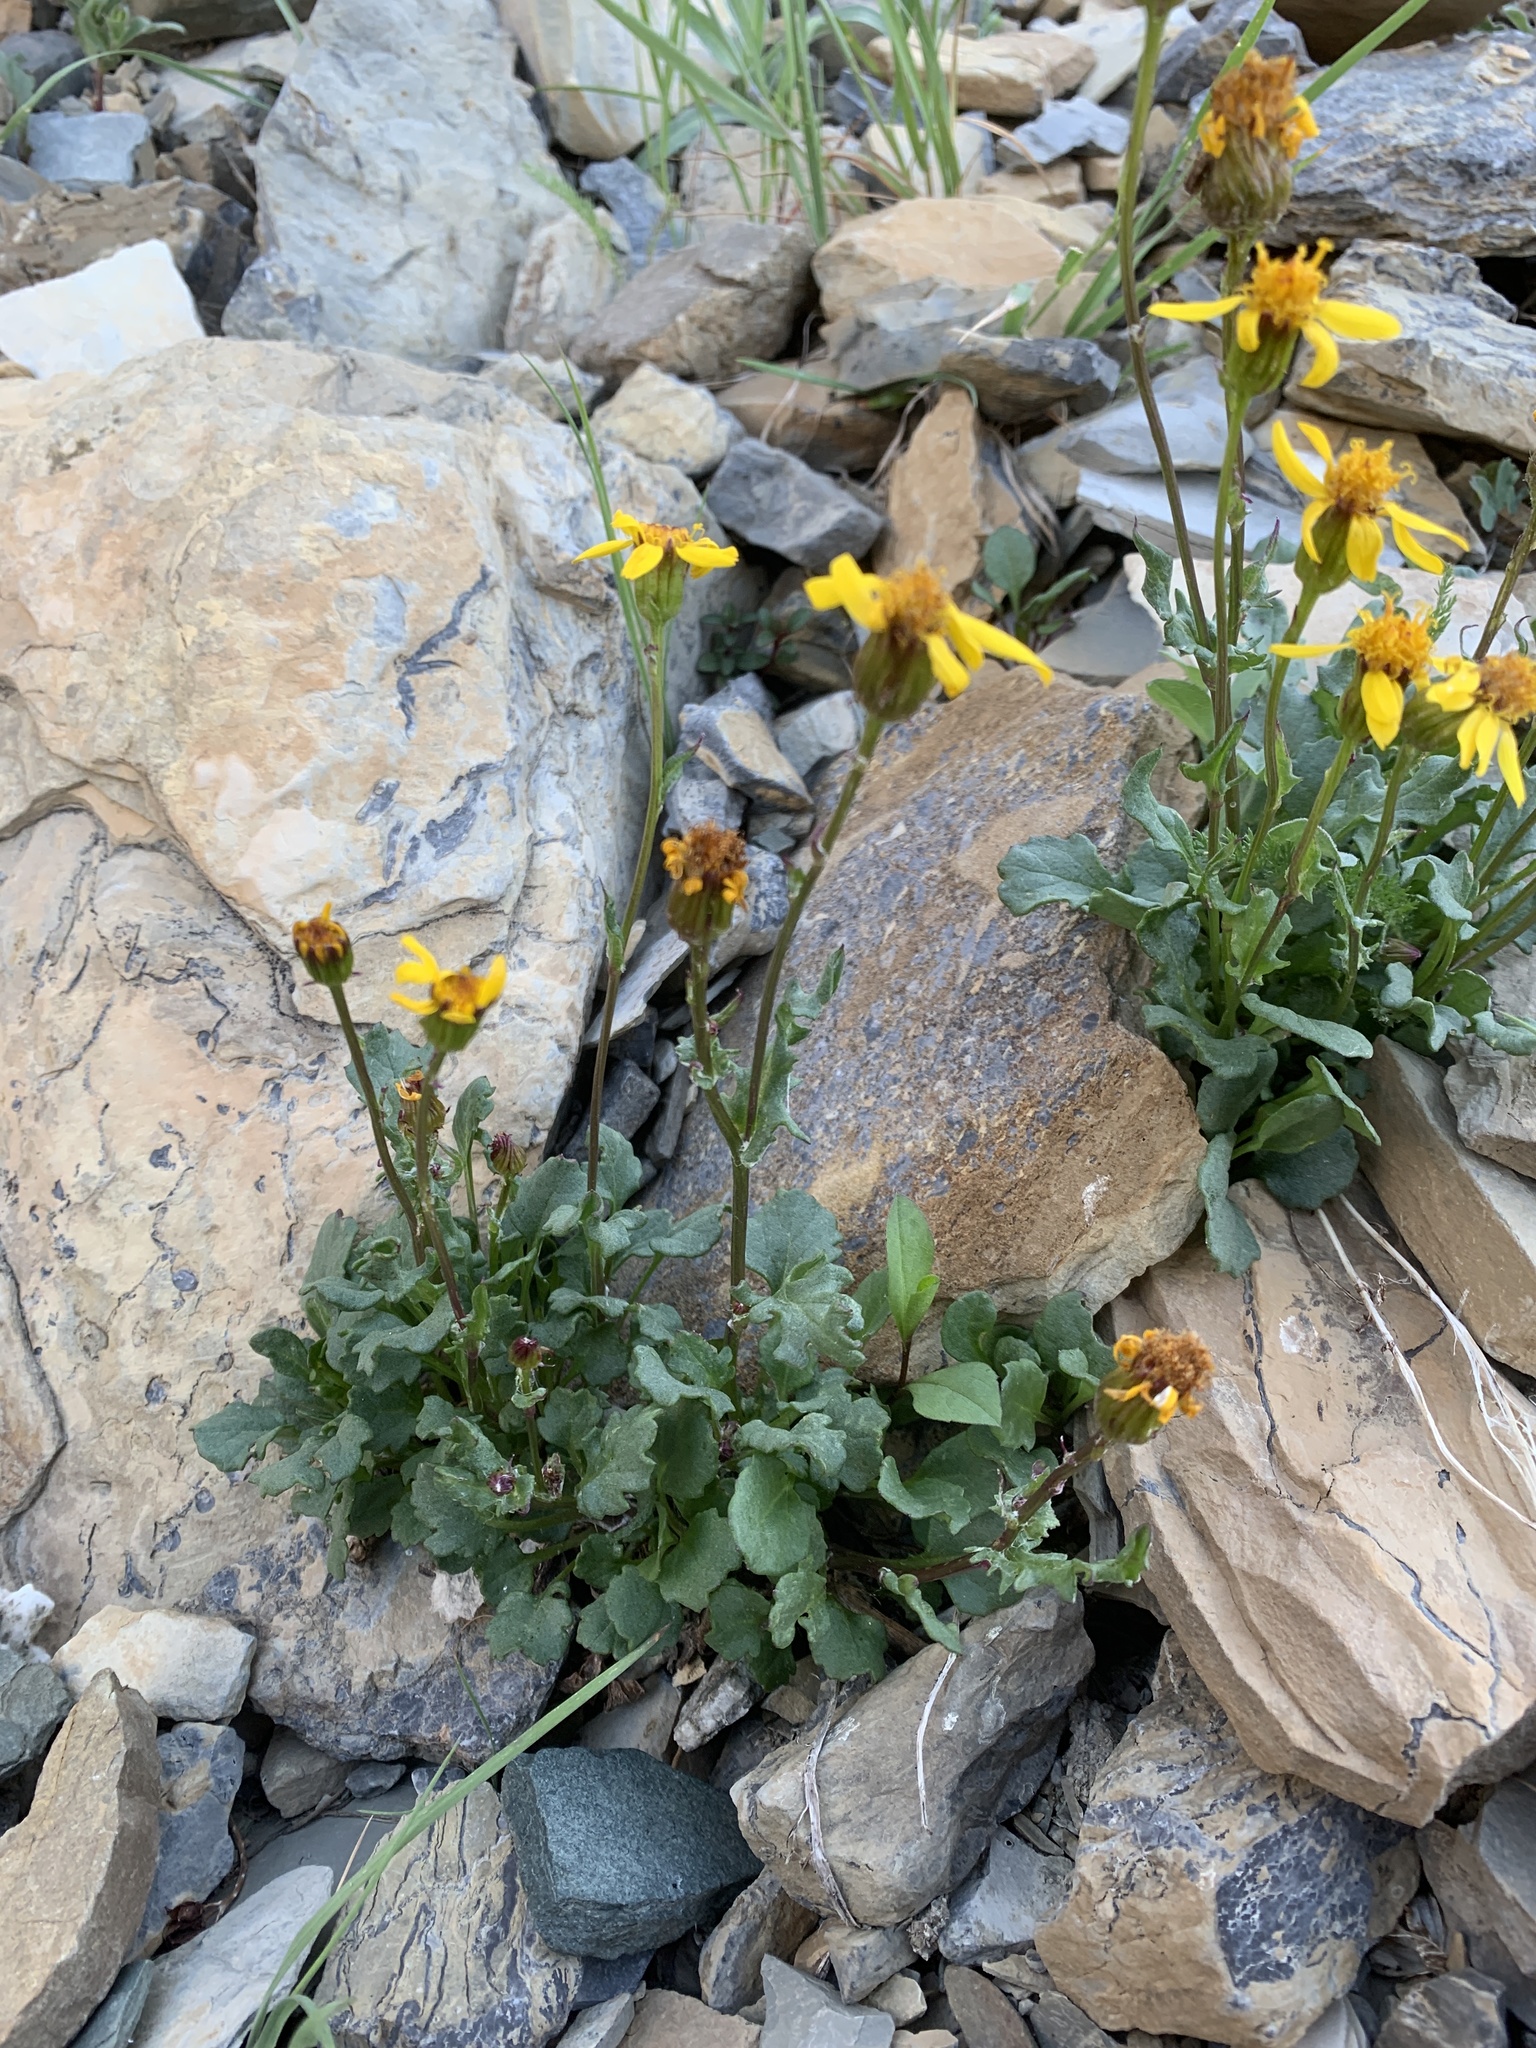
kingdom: Plantae
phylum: Tracheophyta
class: Magnoliopsida
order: Asterales
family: Asteraceae
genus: Senecio
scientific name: Senecio fremontii
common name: Fremont's groundsel
